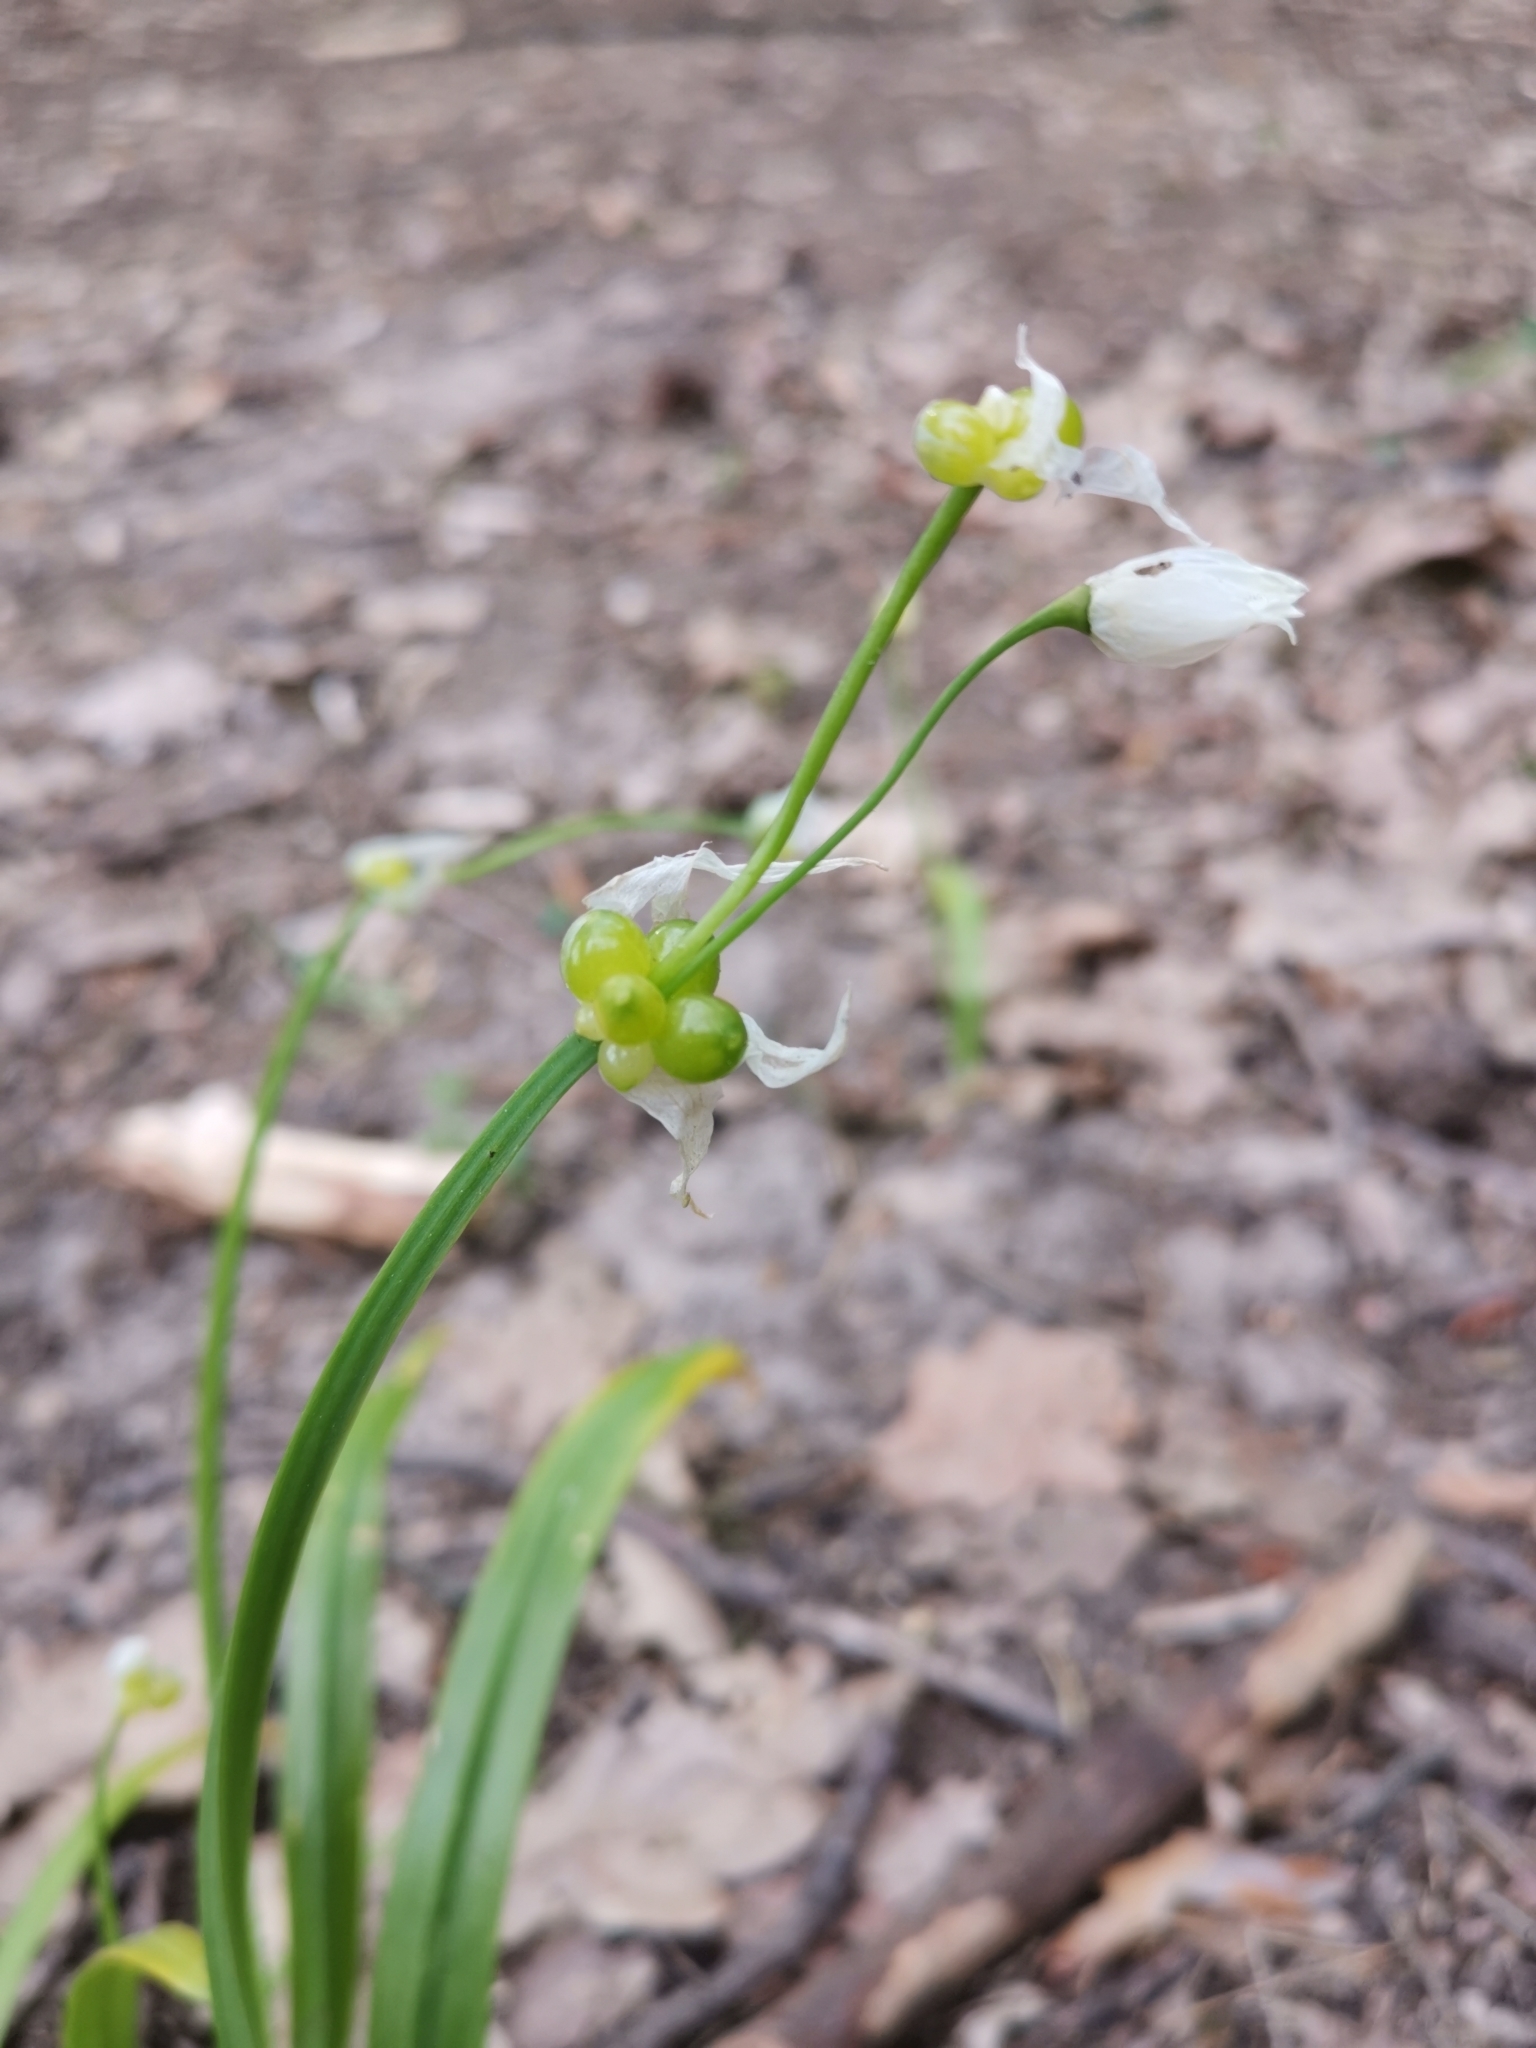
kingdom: Plantae
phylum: Tracheophyta
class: Liliopsida
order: Asparagales
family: Amaryllidaceae
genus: Allium
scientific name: Allium paradoxum
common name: Few-flowered garlic
